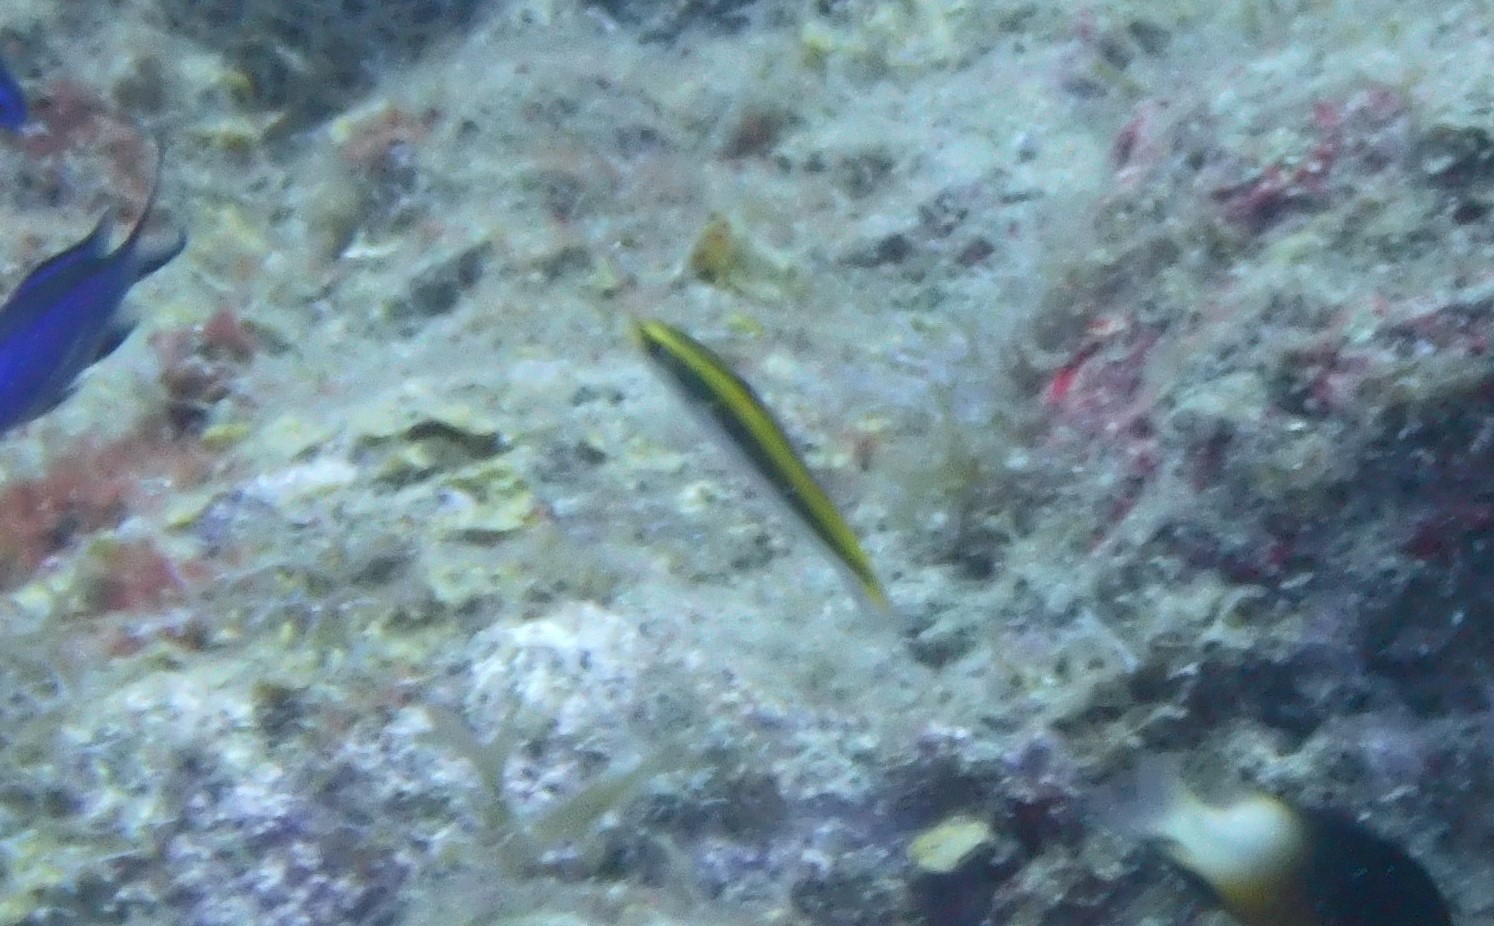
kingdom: Animalia
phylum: Chordata
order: Perciformes
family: Labridae
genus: Thalassoma
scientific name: Thalassoma bifasciatum
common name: Bluehead wrasse
